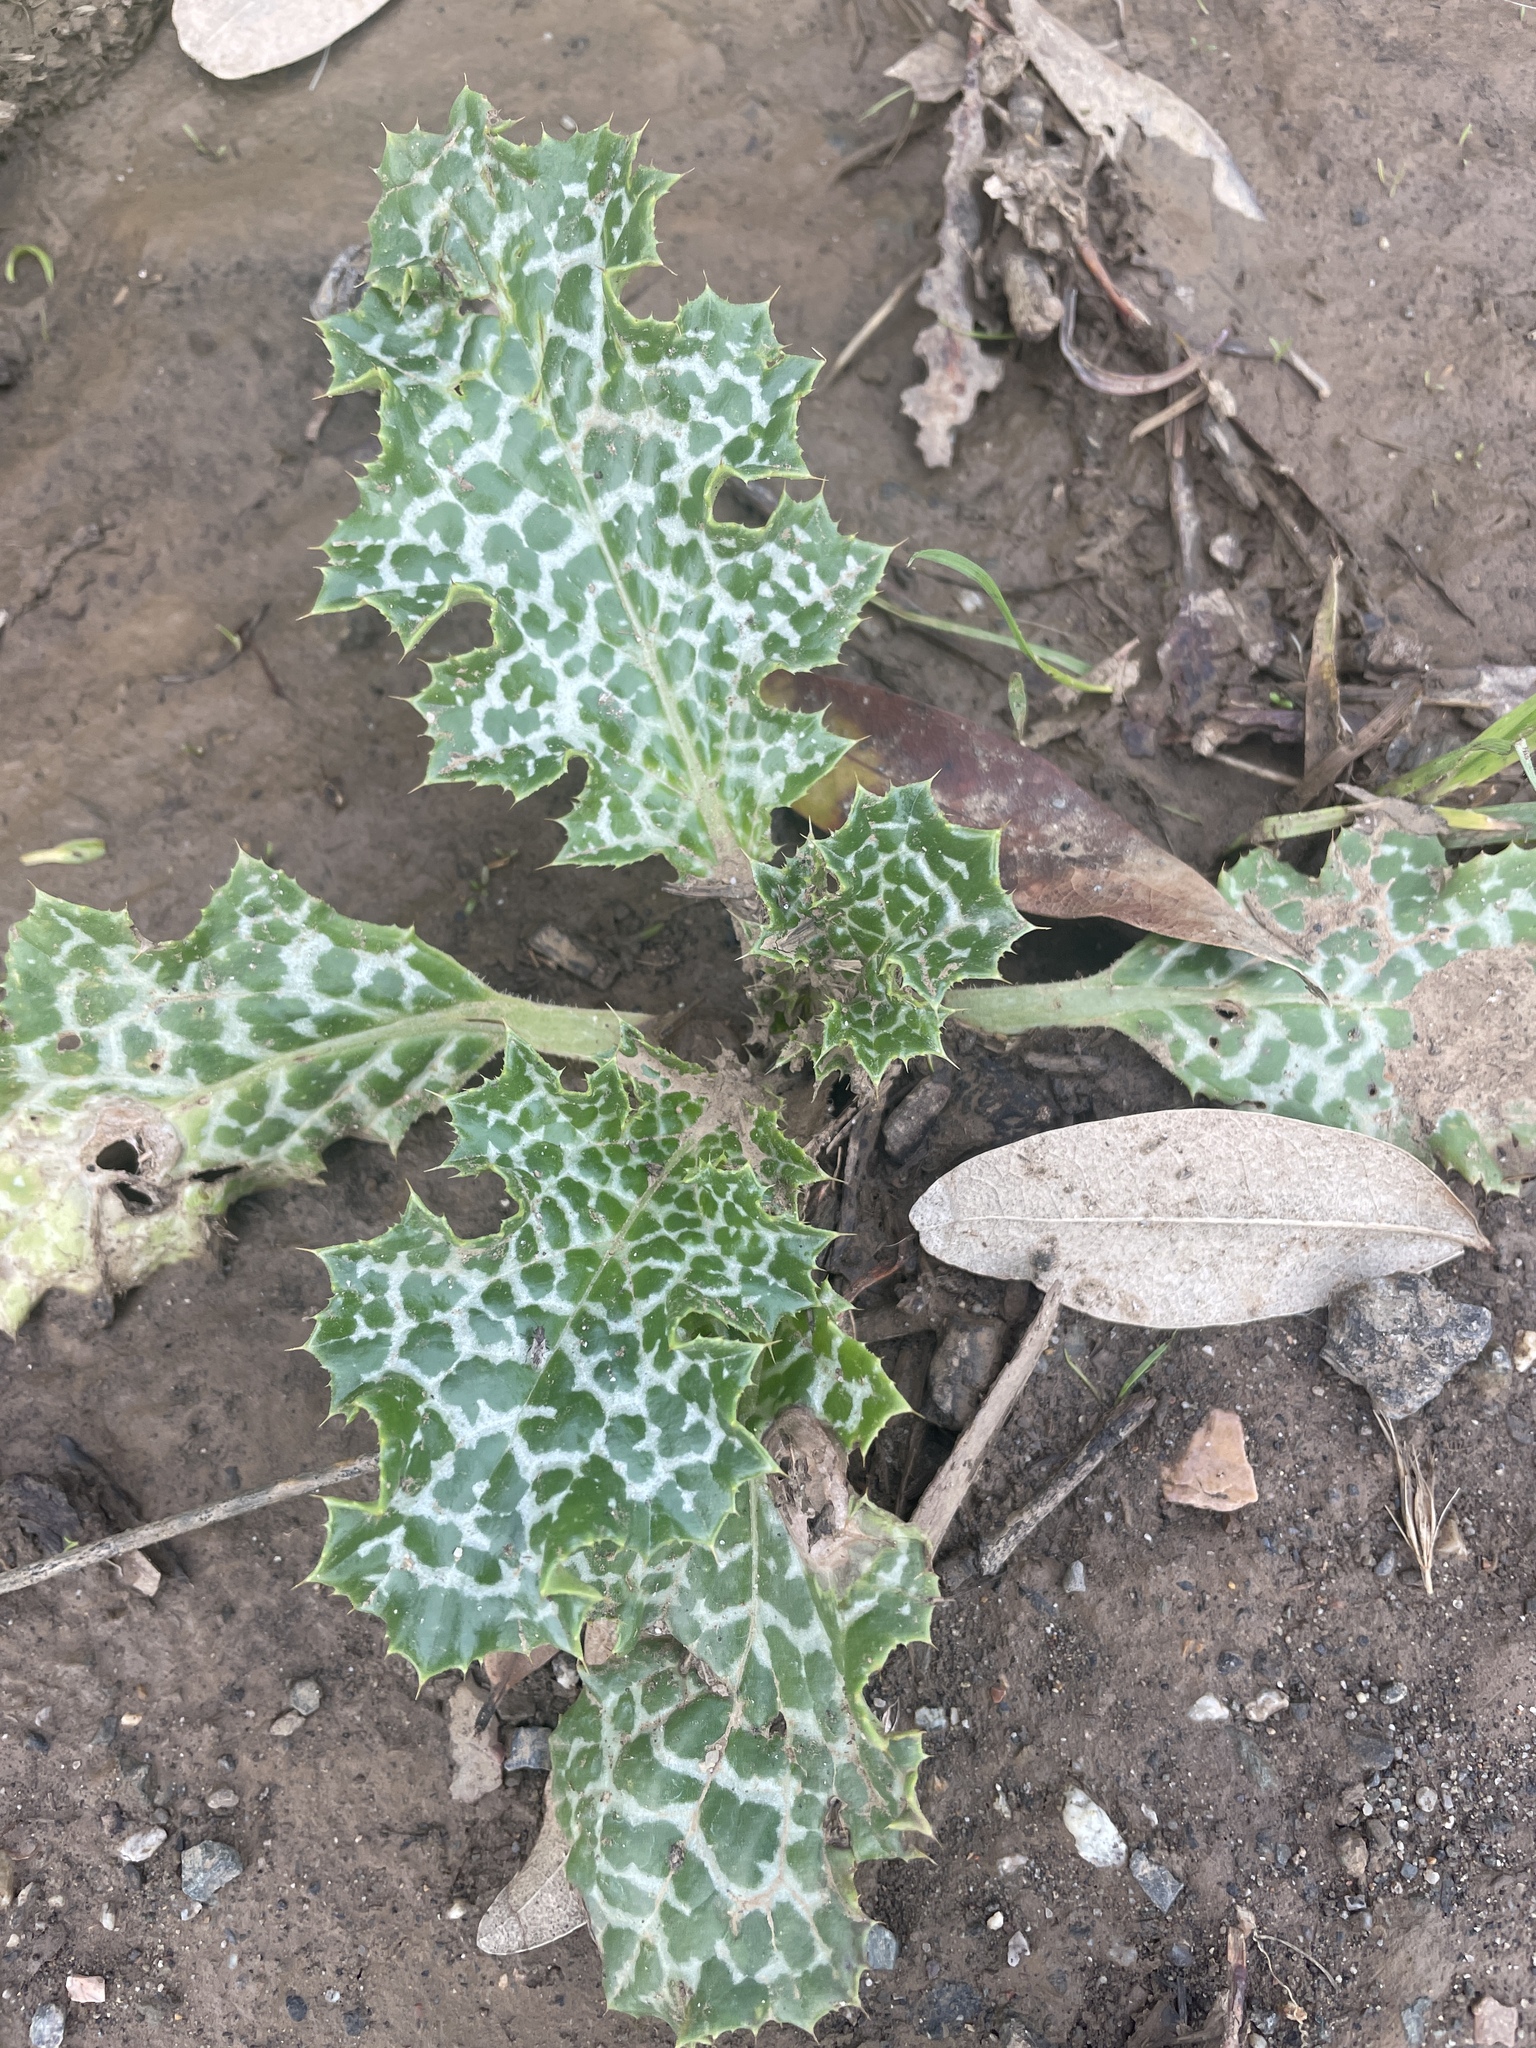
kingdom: Plantae
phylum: Tracheophyta
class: Magnoliopsida
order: Asterales
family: Asteraceae
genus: Silybum
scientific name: Silybum marianum
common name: Milk thistle
